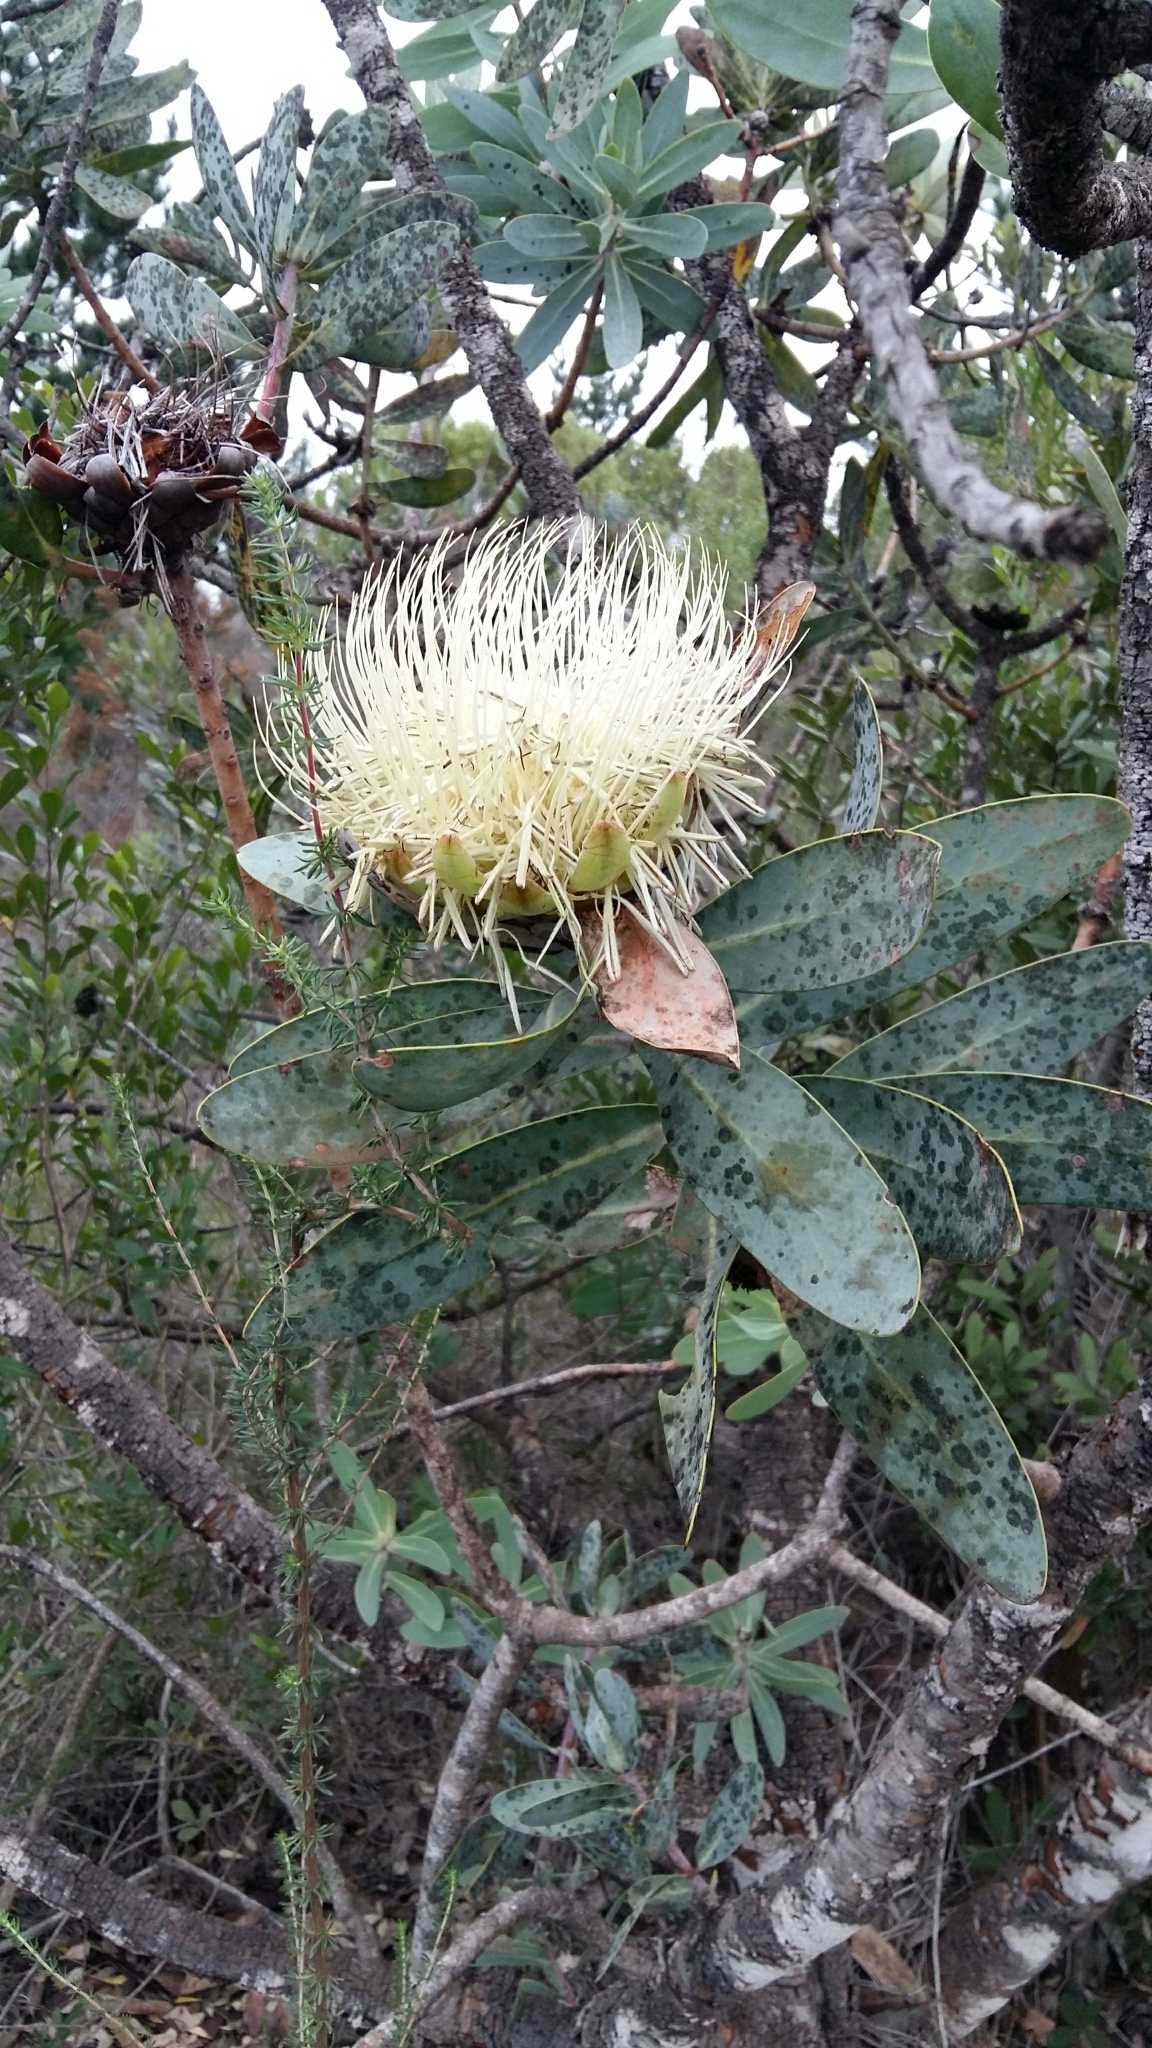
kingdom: Plantae
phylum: Tracheophyta
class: Magnoliopsida
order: Proteales
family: Proteaceae
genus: Protea
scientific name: Protea nitida
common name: Tree protea
